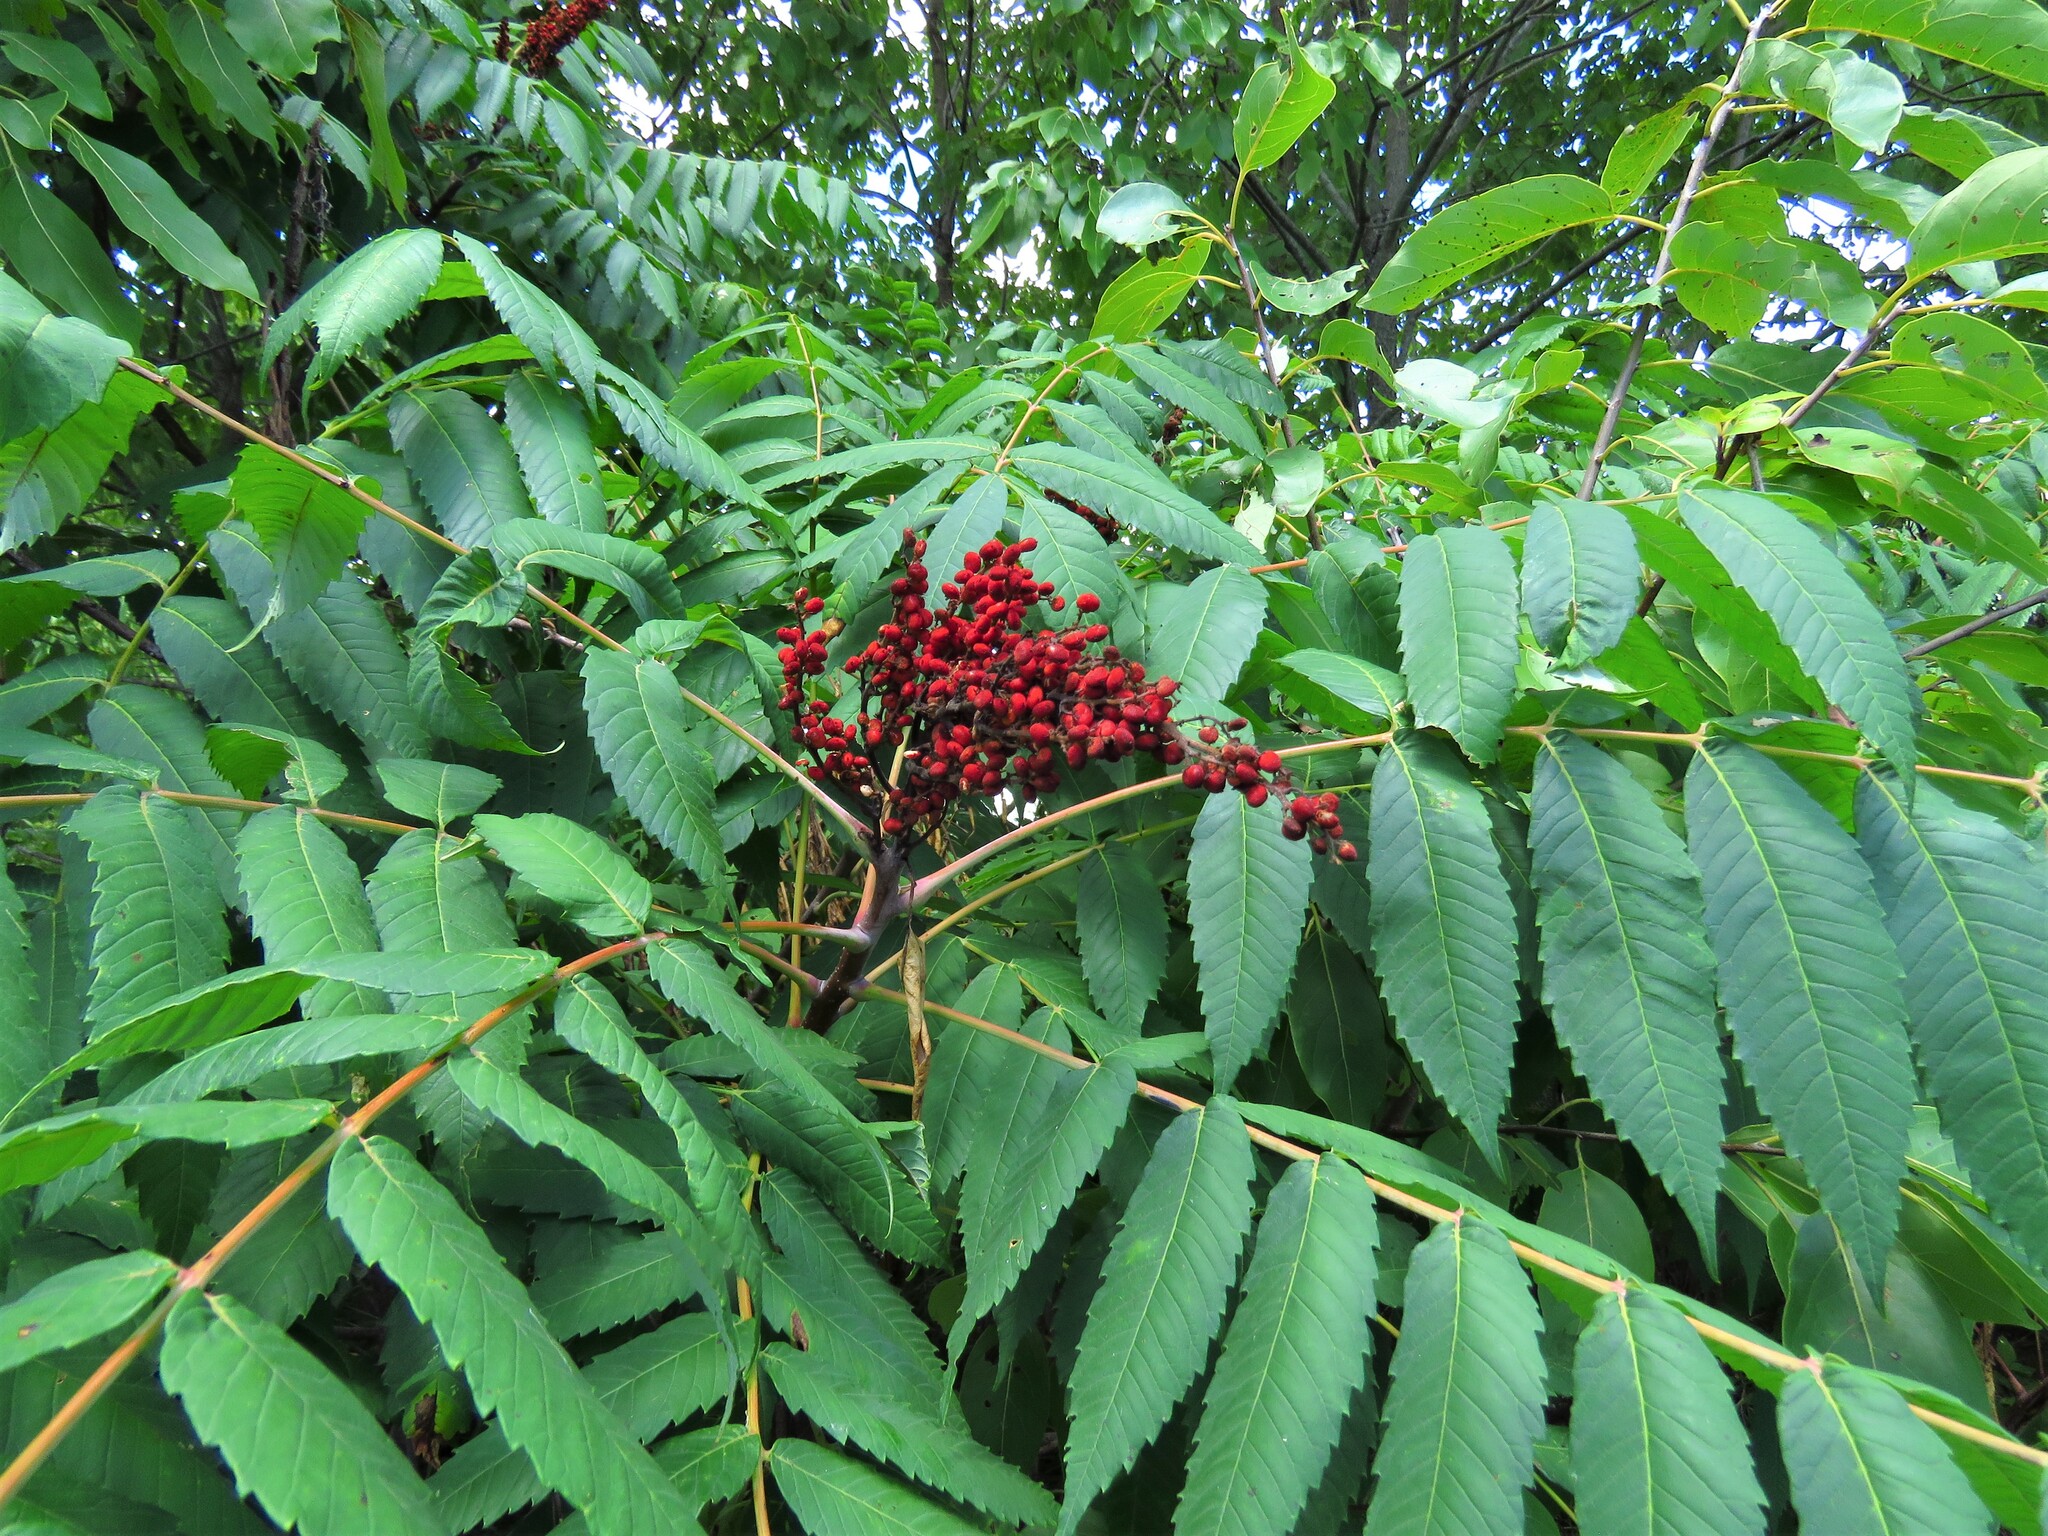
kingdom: Plantae
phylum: Tracheophyta
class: Magnoliopsida
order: Sapindales
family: Anacardiaceae
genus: Rhus
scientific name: Rhus glabra
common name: Scarlet sumac
